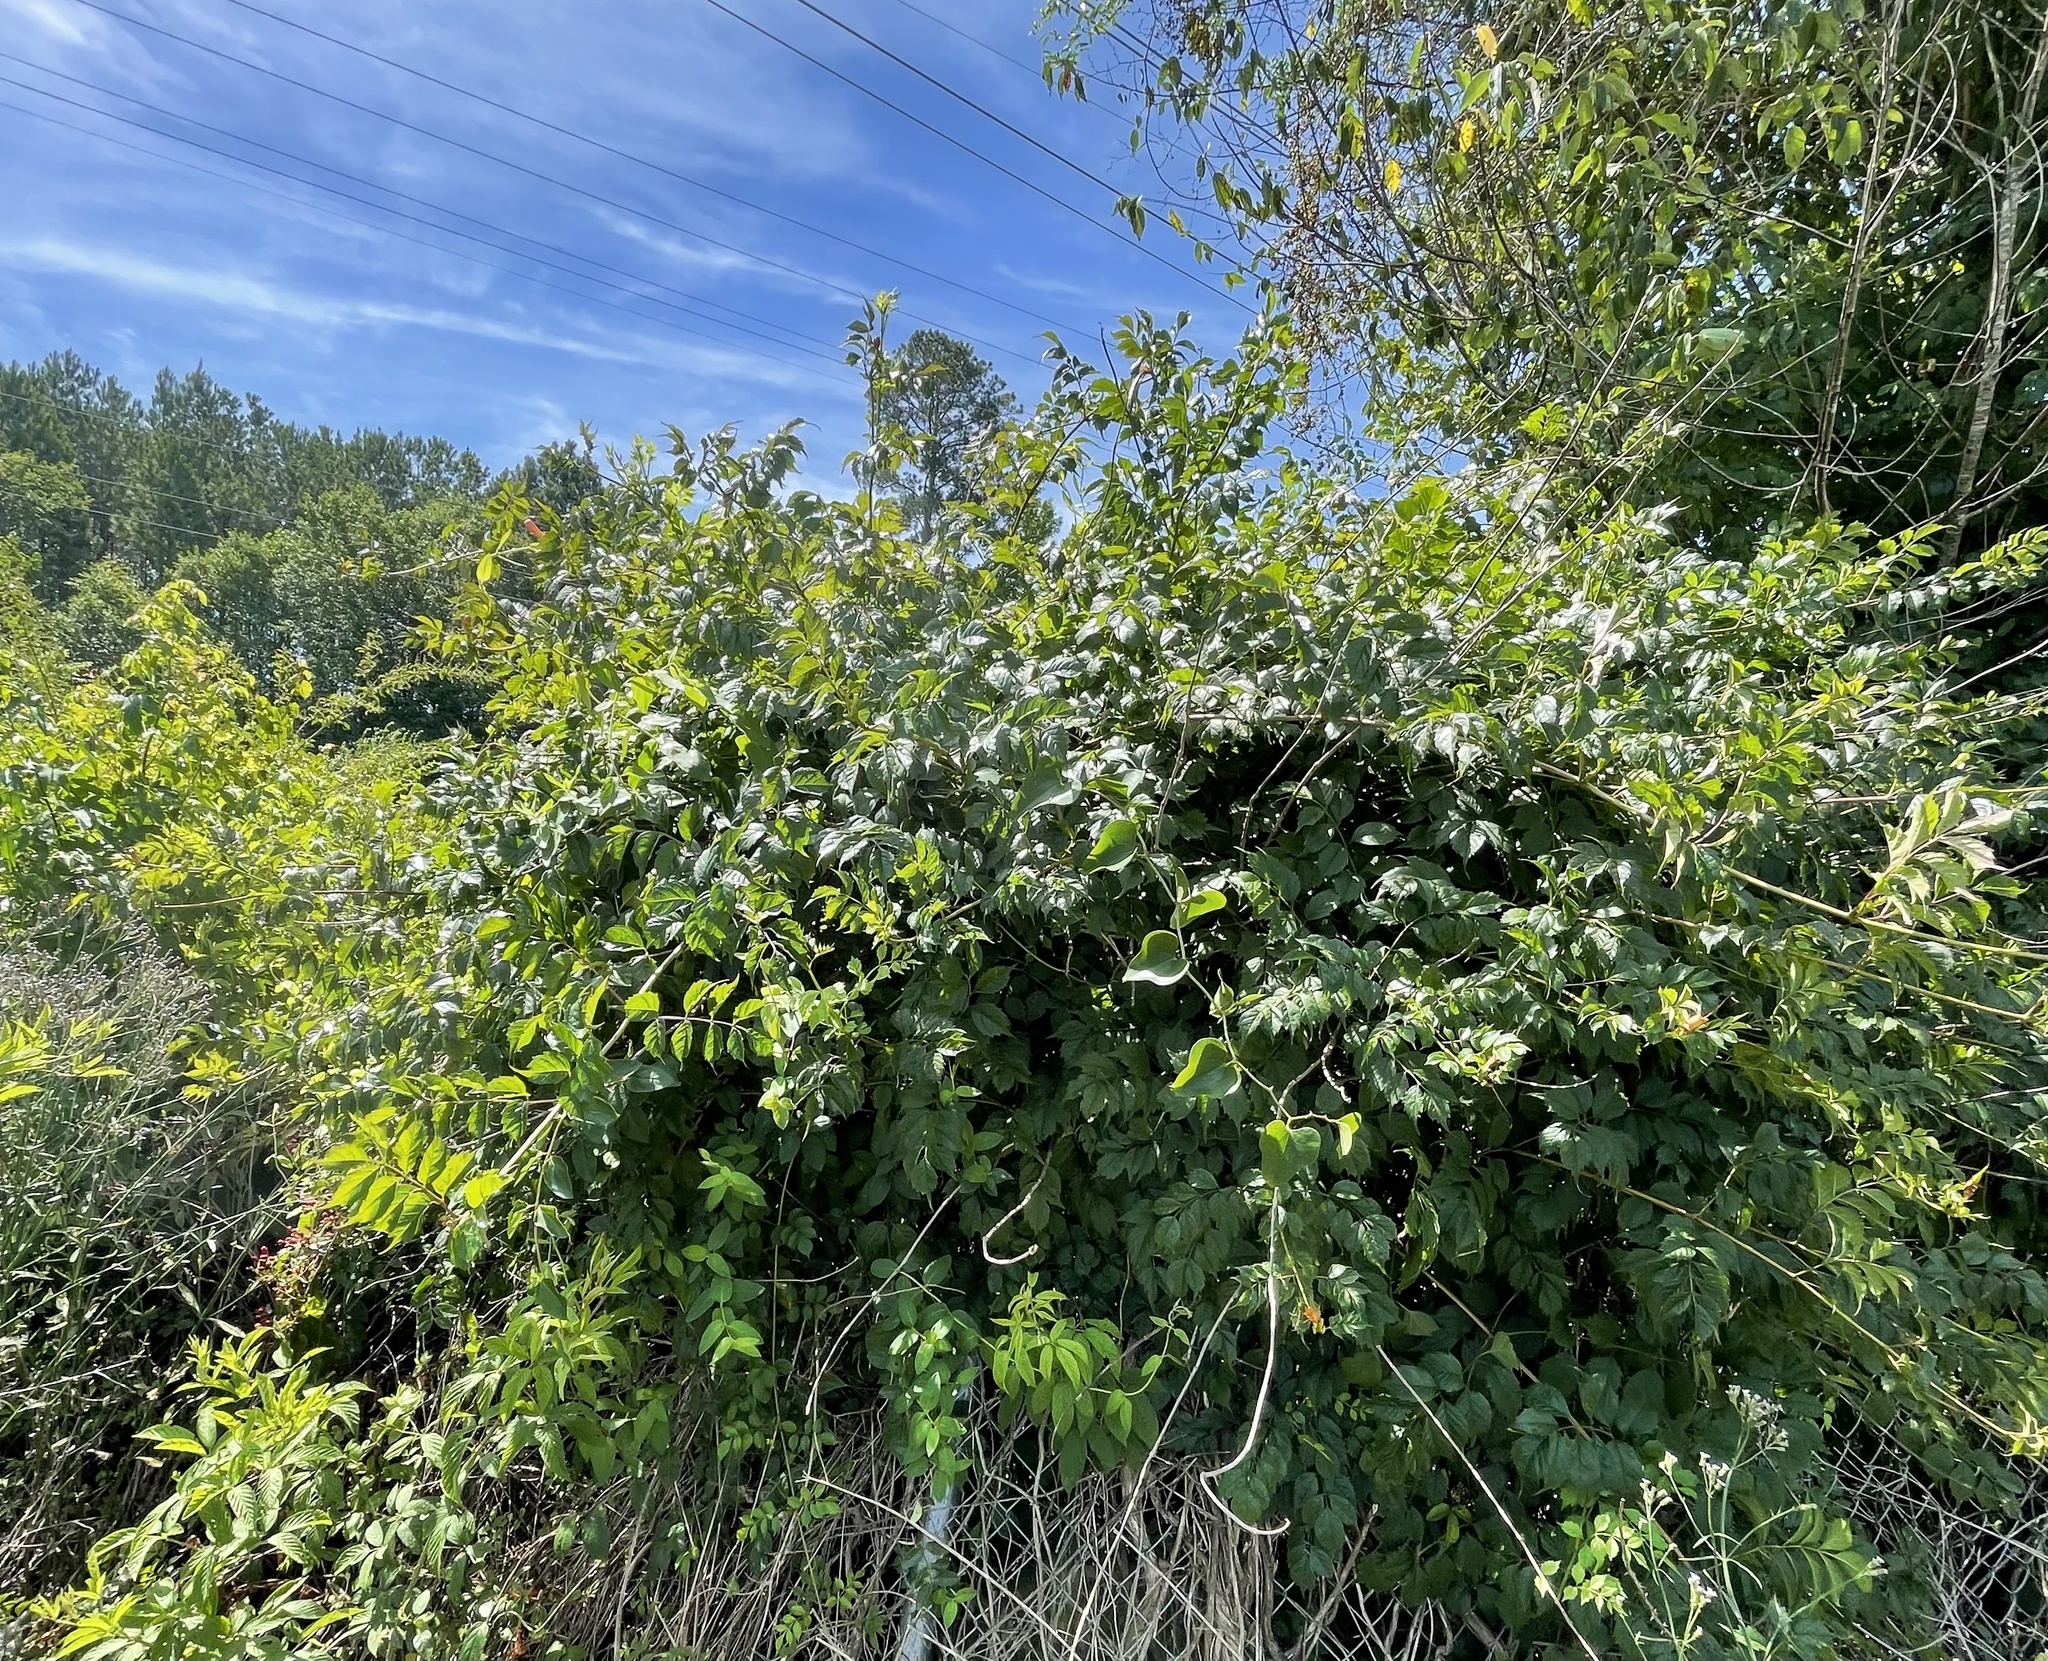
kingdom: Plantae
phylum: Tracheophyta
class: Magnoliopsida
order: Lamiales
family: Bignoniaceae
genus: Campsis
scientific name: Campsis radicans
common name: Trumpet-creeper
